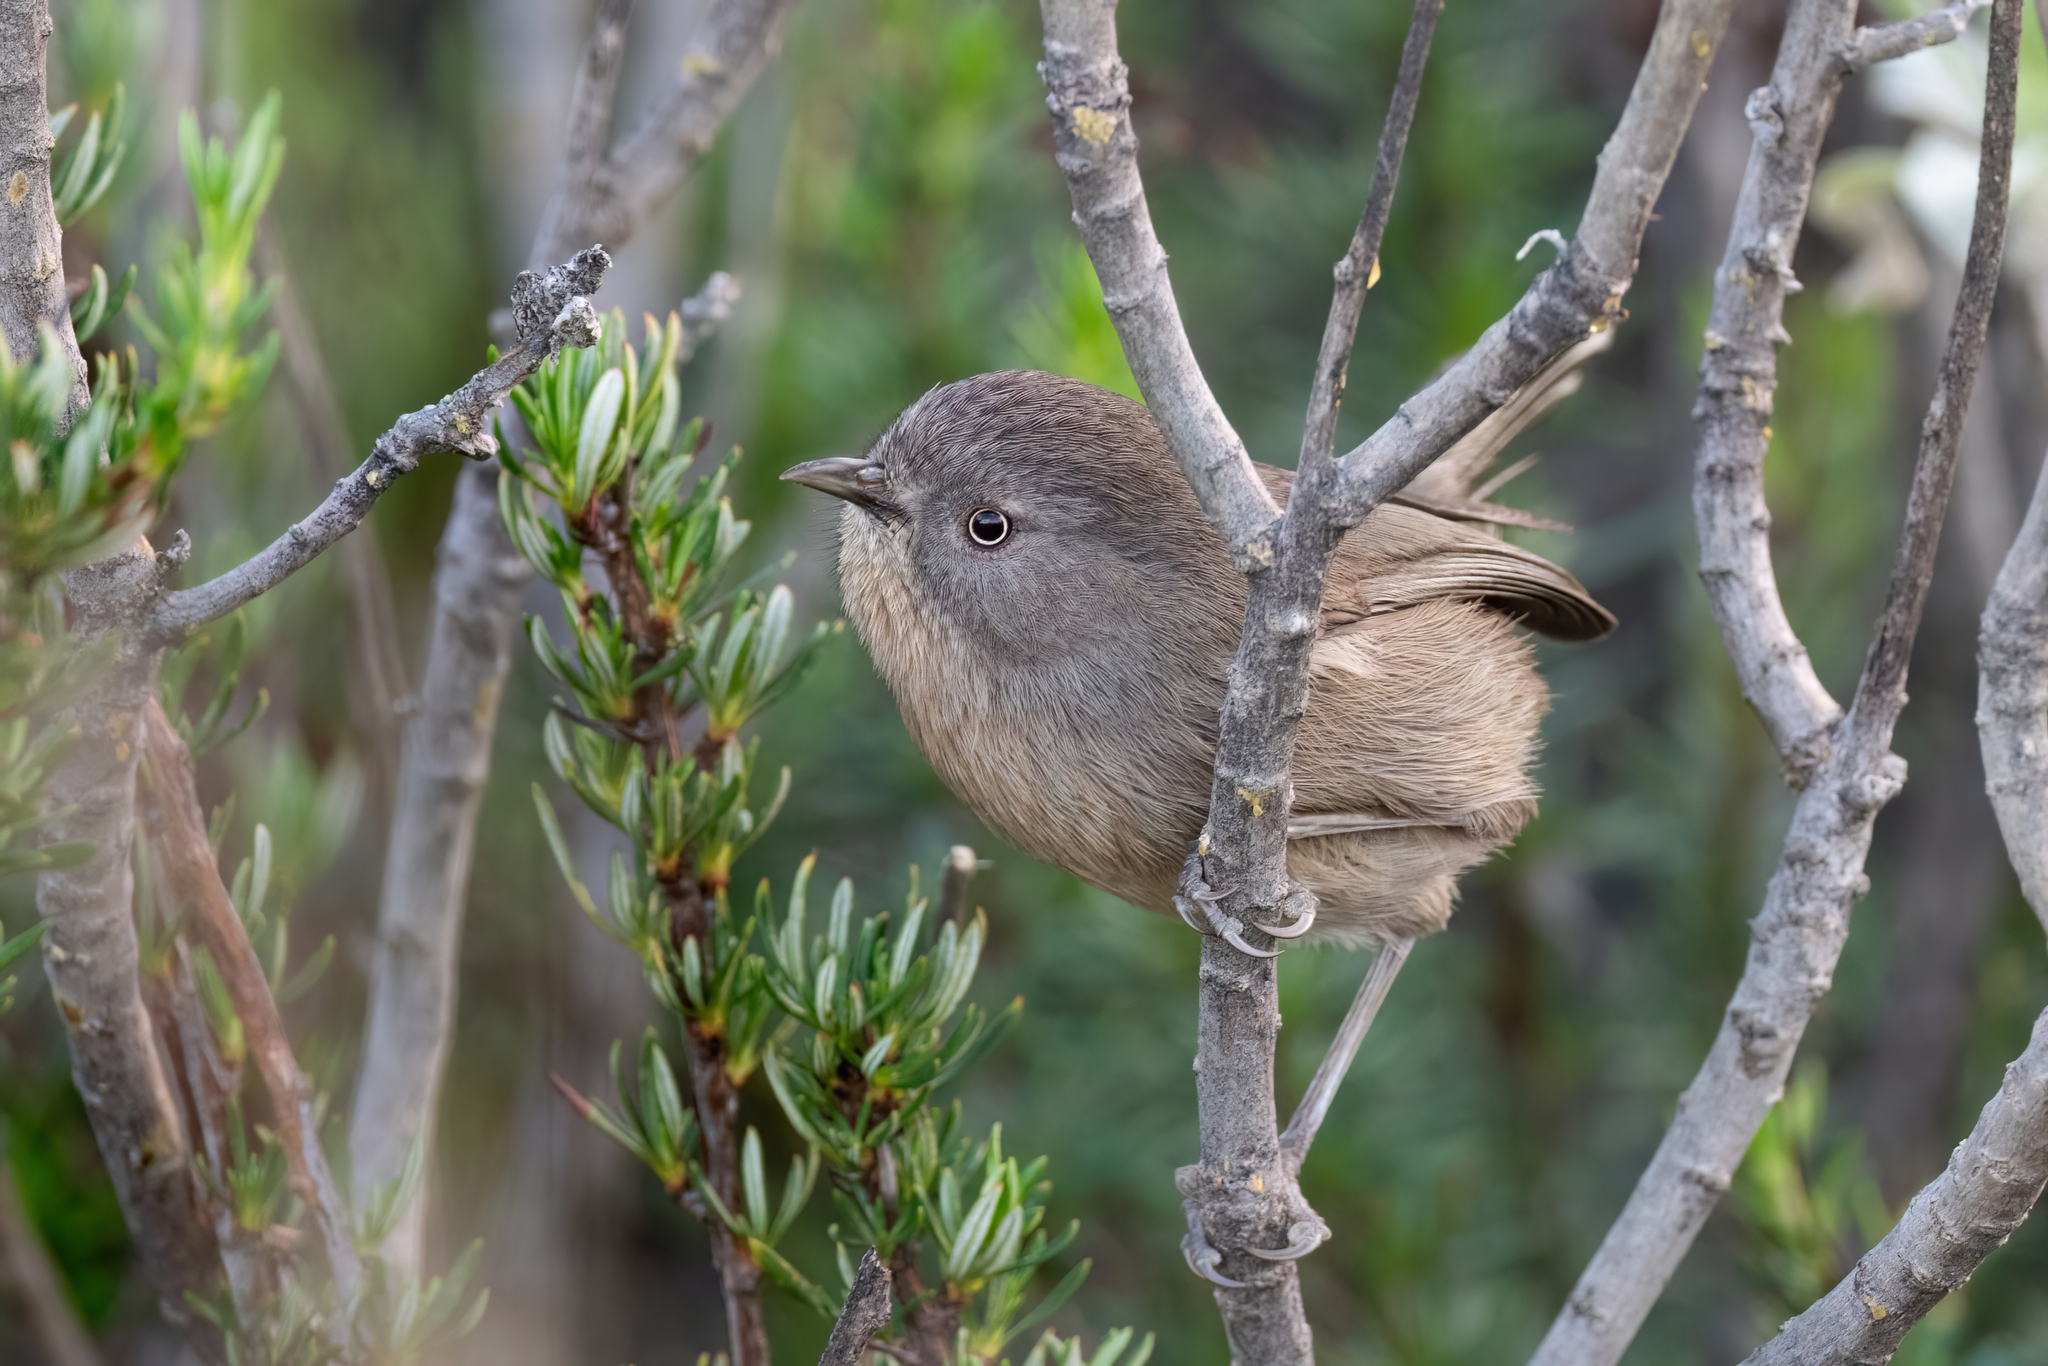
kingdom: Animalia
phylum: Chordata
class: Aves
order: Passeriformes
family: Sylviidae
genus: Chamaea
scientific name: Chamaea fasciata
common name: Wrentit
